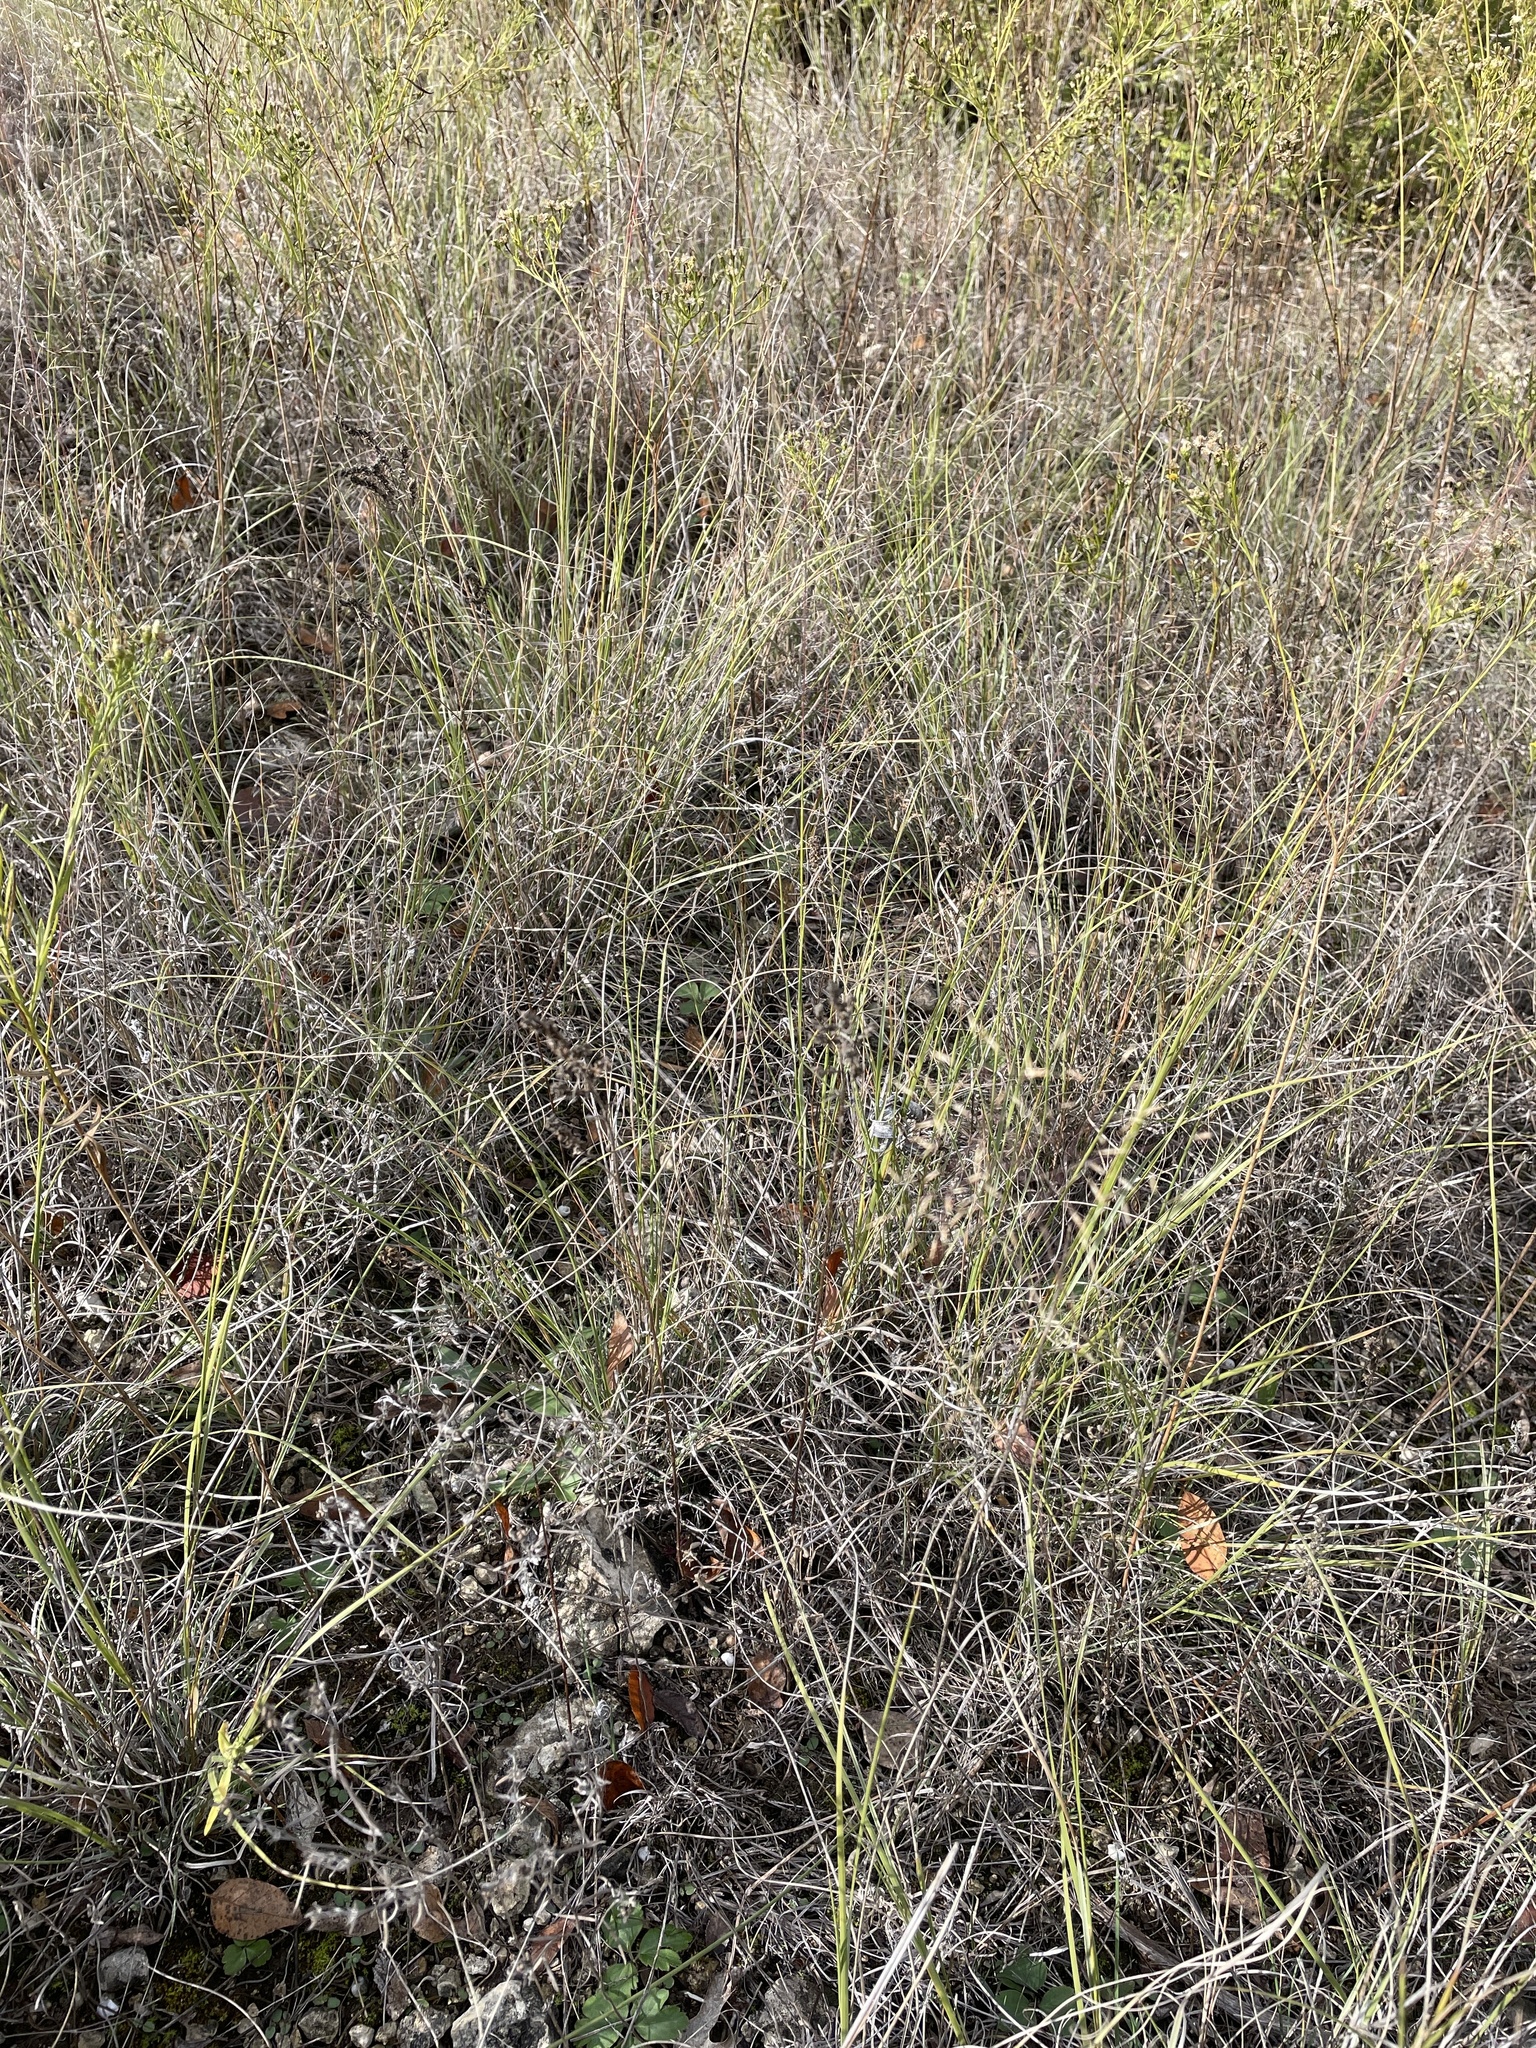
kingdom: Plantae
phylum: Tracheophyta
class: Liliopsida
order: Poales
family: Poaceae
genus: Muhlenbergia
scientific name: Muhlenbergia reverchonii
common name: Seep muhly
